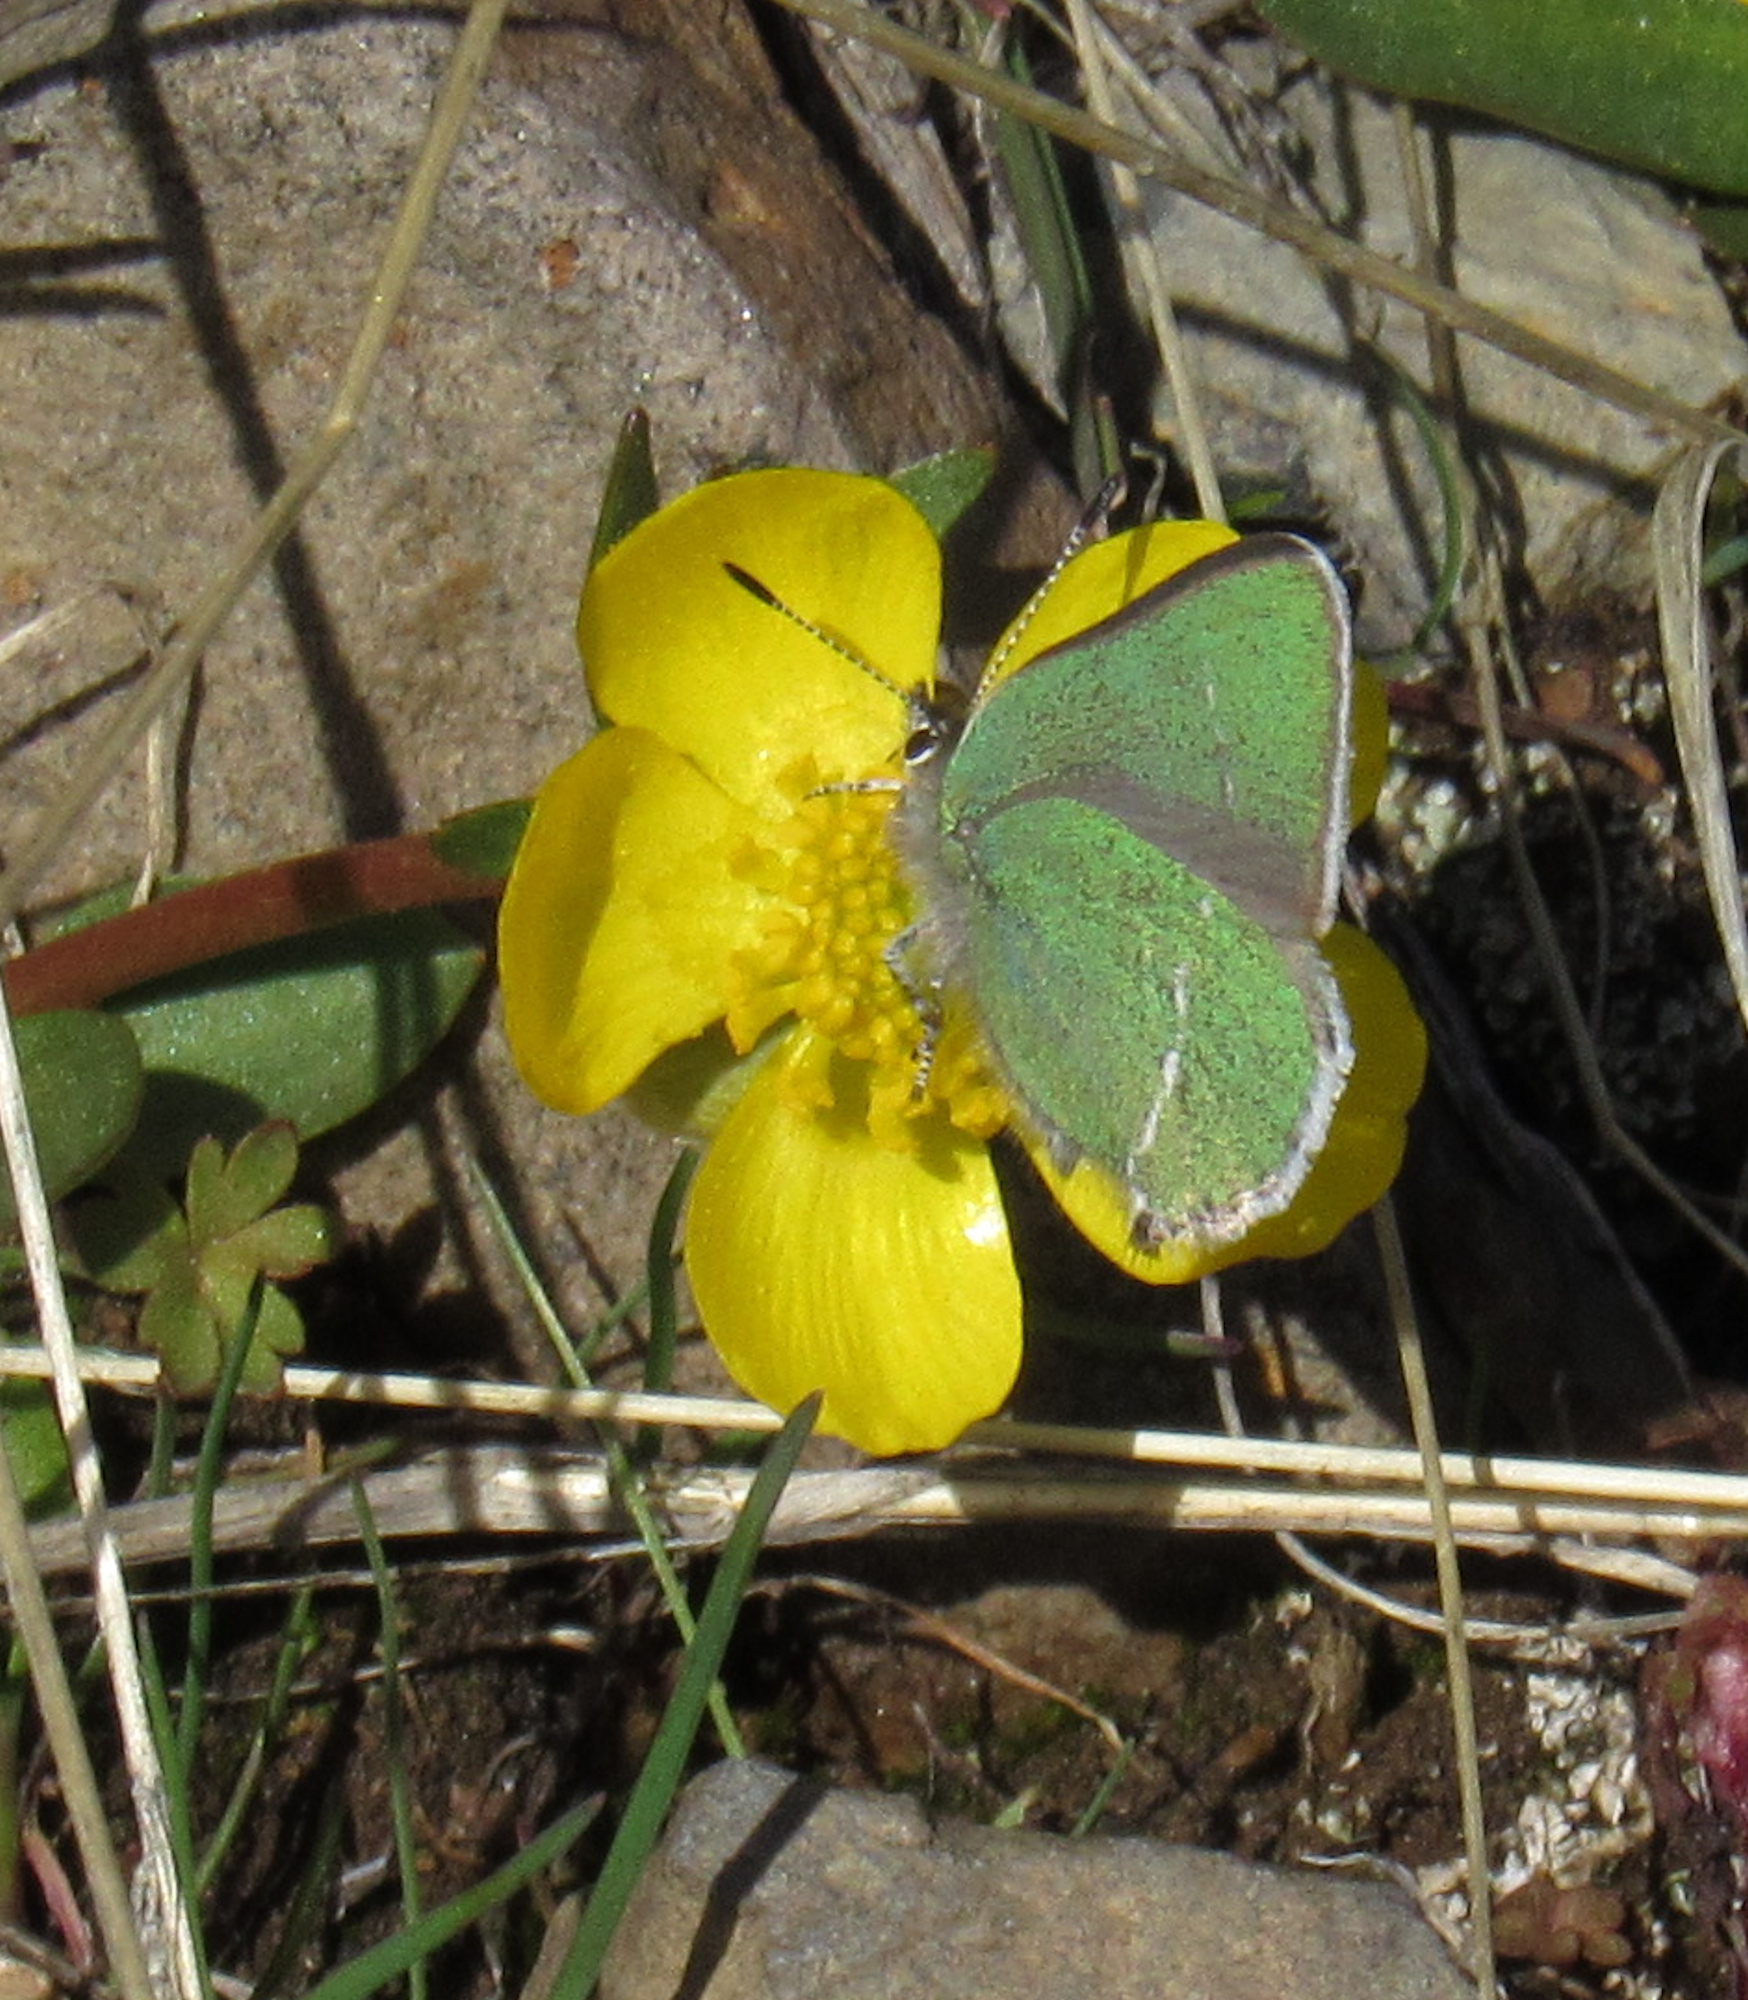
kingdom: Animalia
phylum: Arthropoda
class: Insecta
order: Lepidoptera
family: Lycaenidae
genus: Thecla
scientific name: Thecla sheridanii
